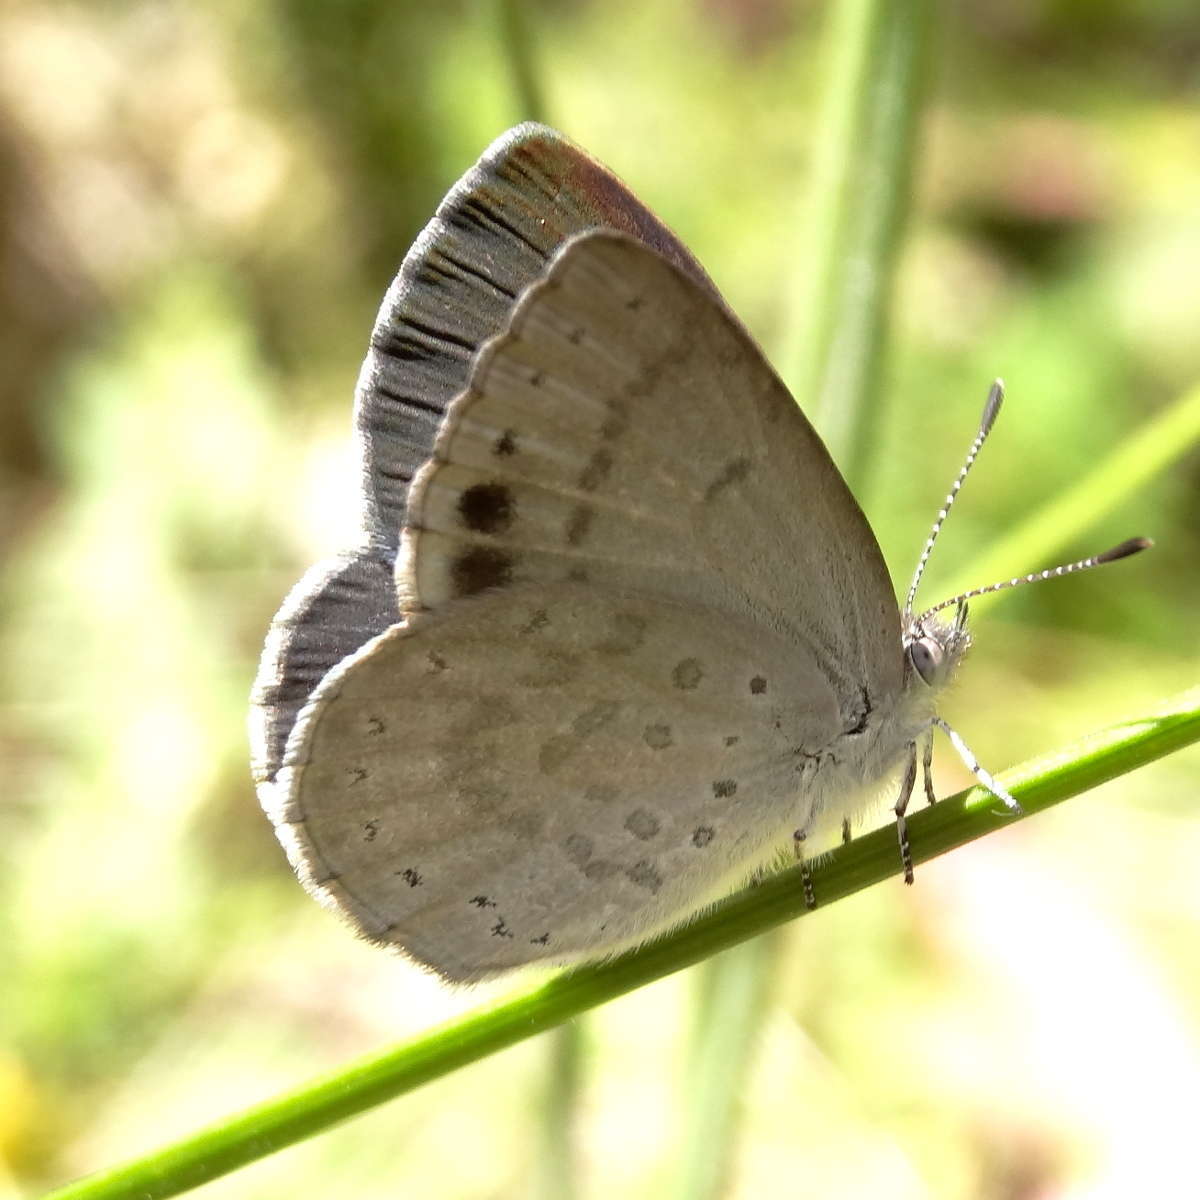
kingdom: Animalia
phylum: Arthropoda
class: Insecta
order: Lepidoptera
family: Lycaenidae
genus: Candalides
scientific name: Candalides
